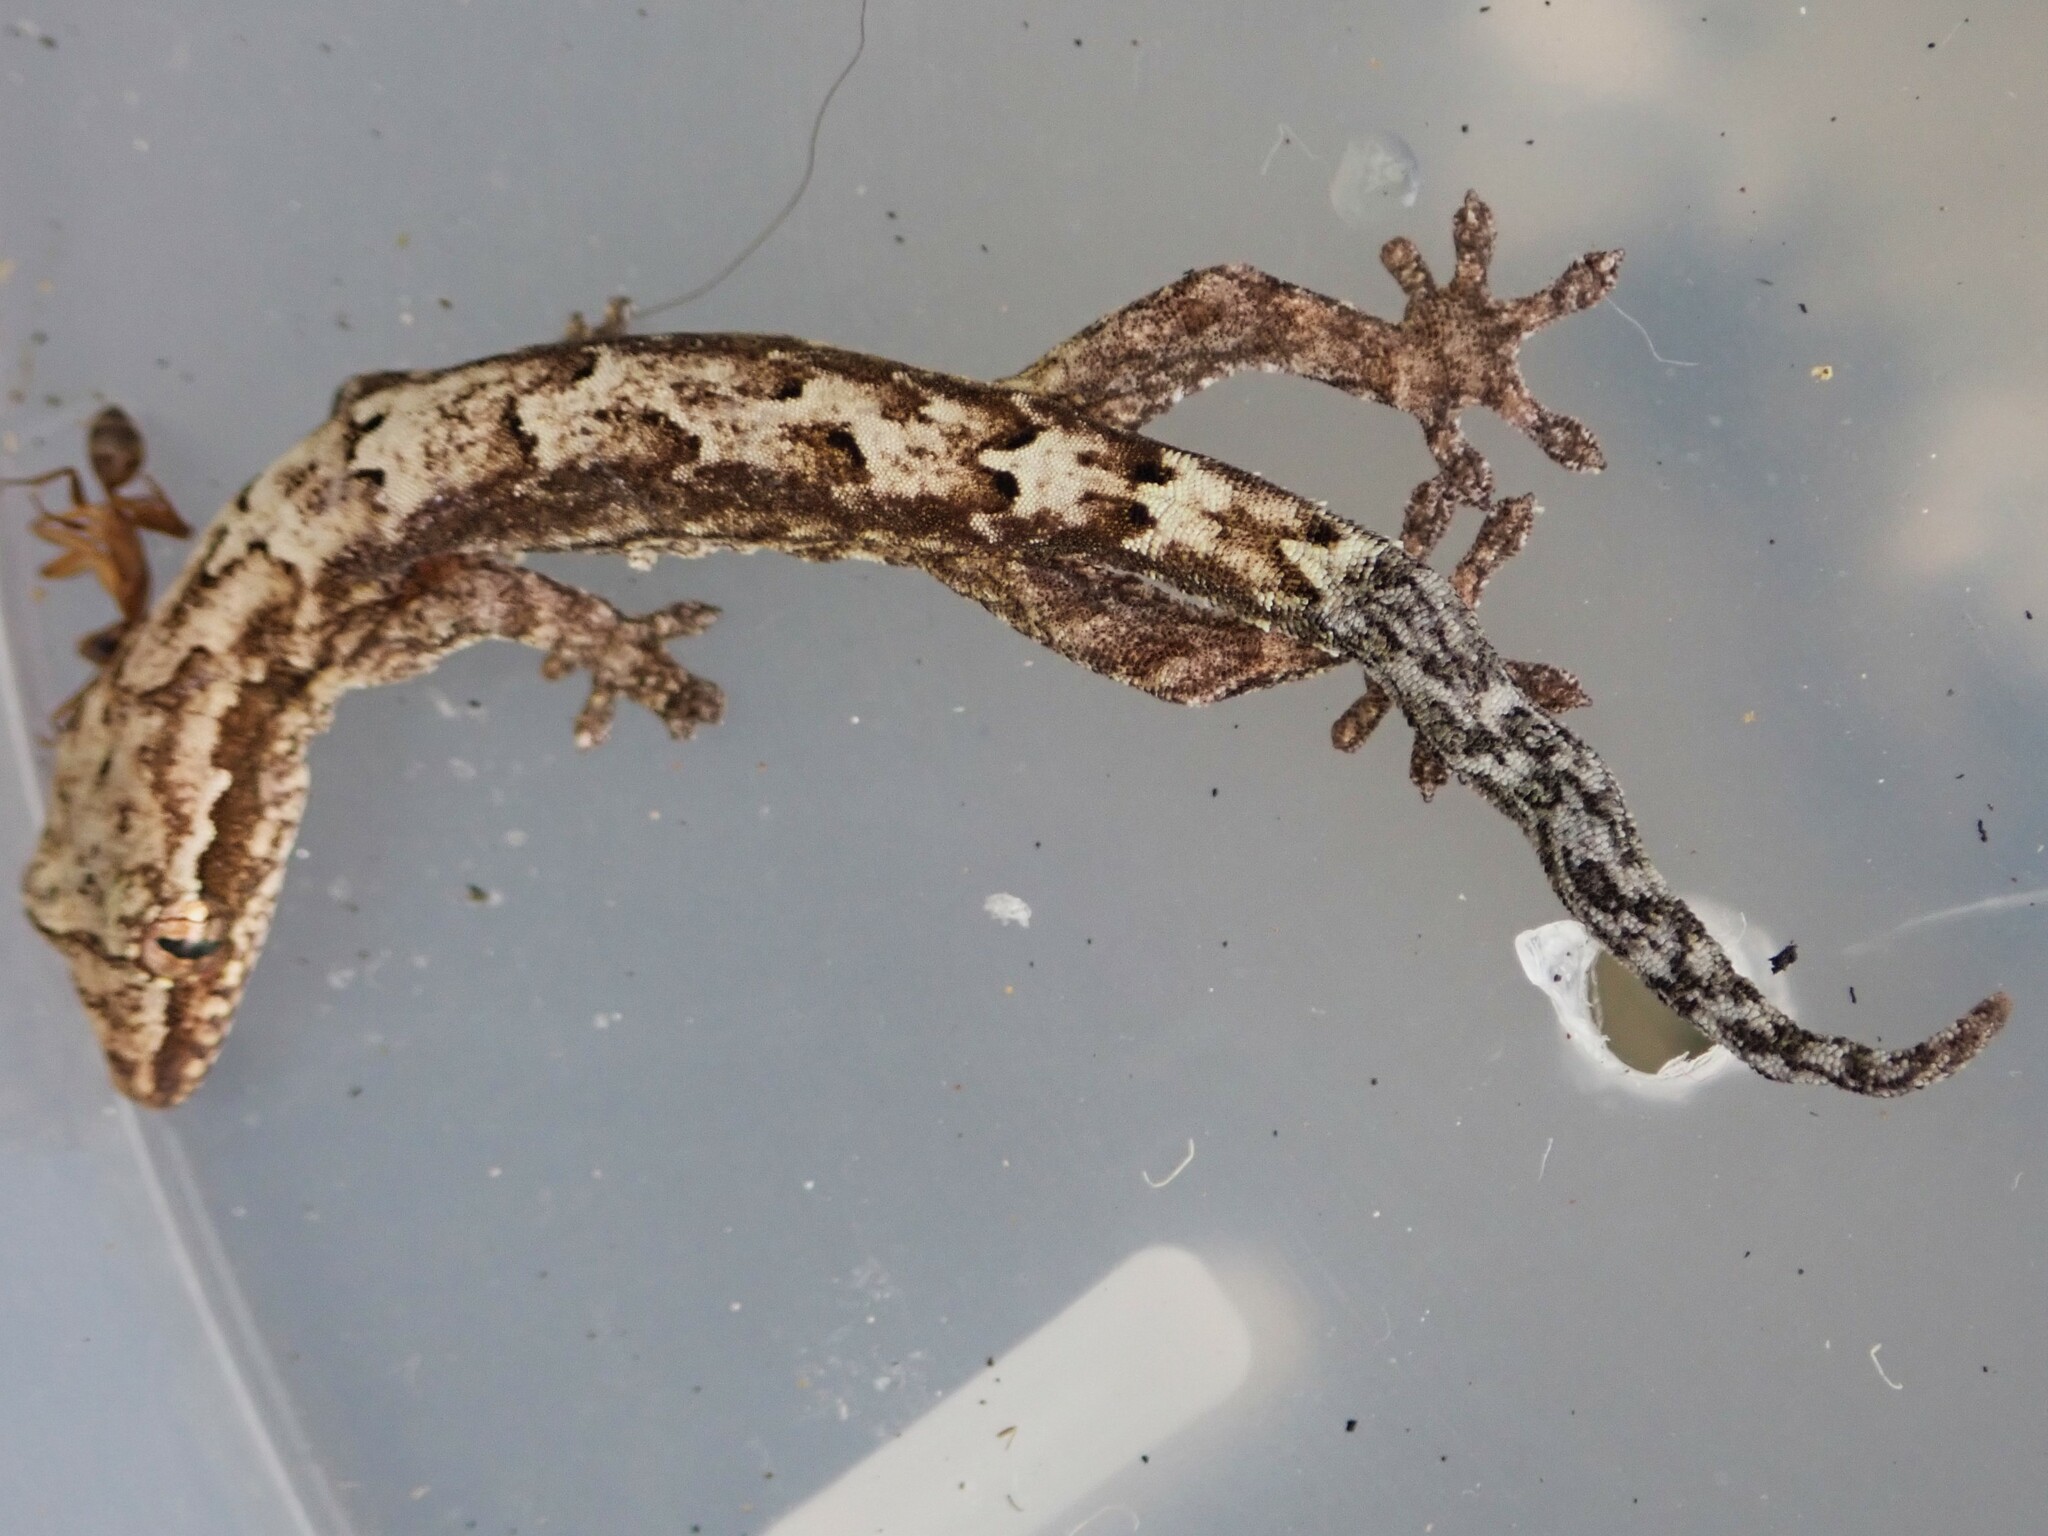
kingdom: Animalia
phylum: Chordata
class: Squamata
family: Gekkonidae
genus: Lepidodactylus
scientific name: Lepidodactylus lugubris
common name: Mourning gecko
